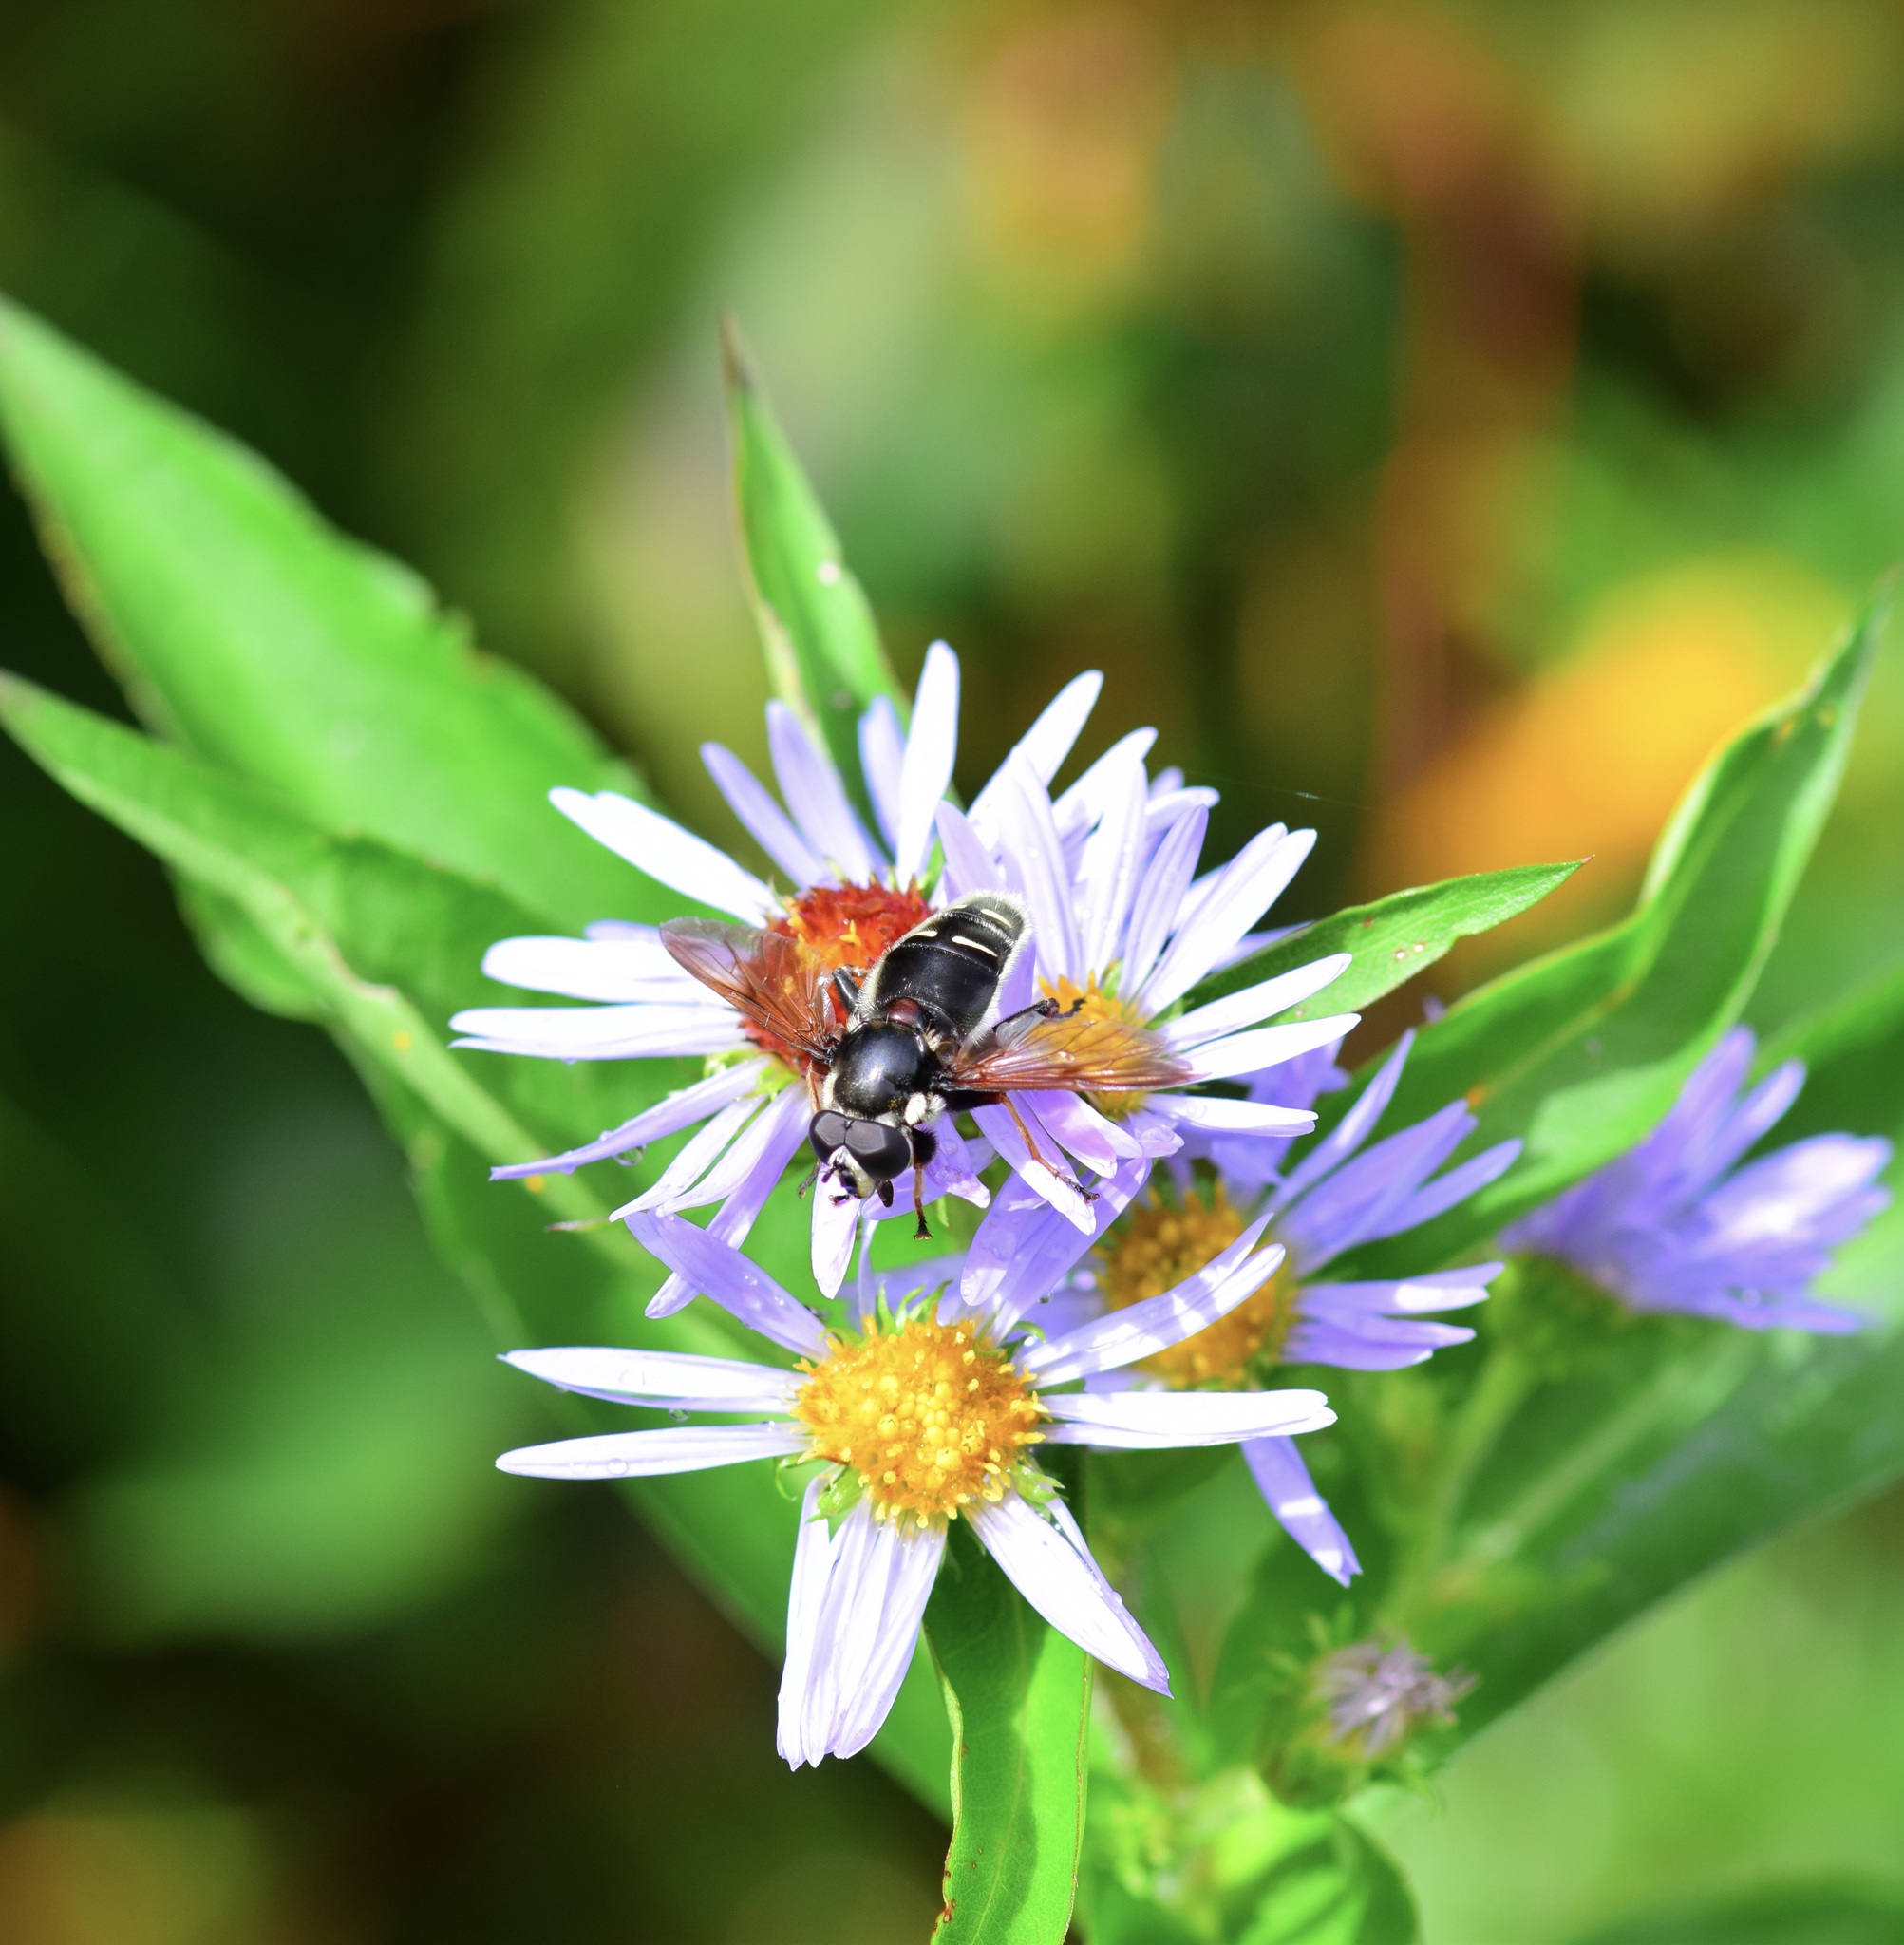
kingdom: Animalia
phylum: Arthropoda
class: Insecta
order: Diptera
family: Syrphidae
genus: Sericomyia
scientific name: Sericomyia militaris
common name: Narrow-banded pond fly
